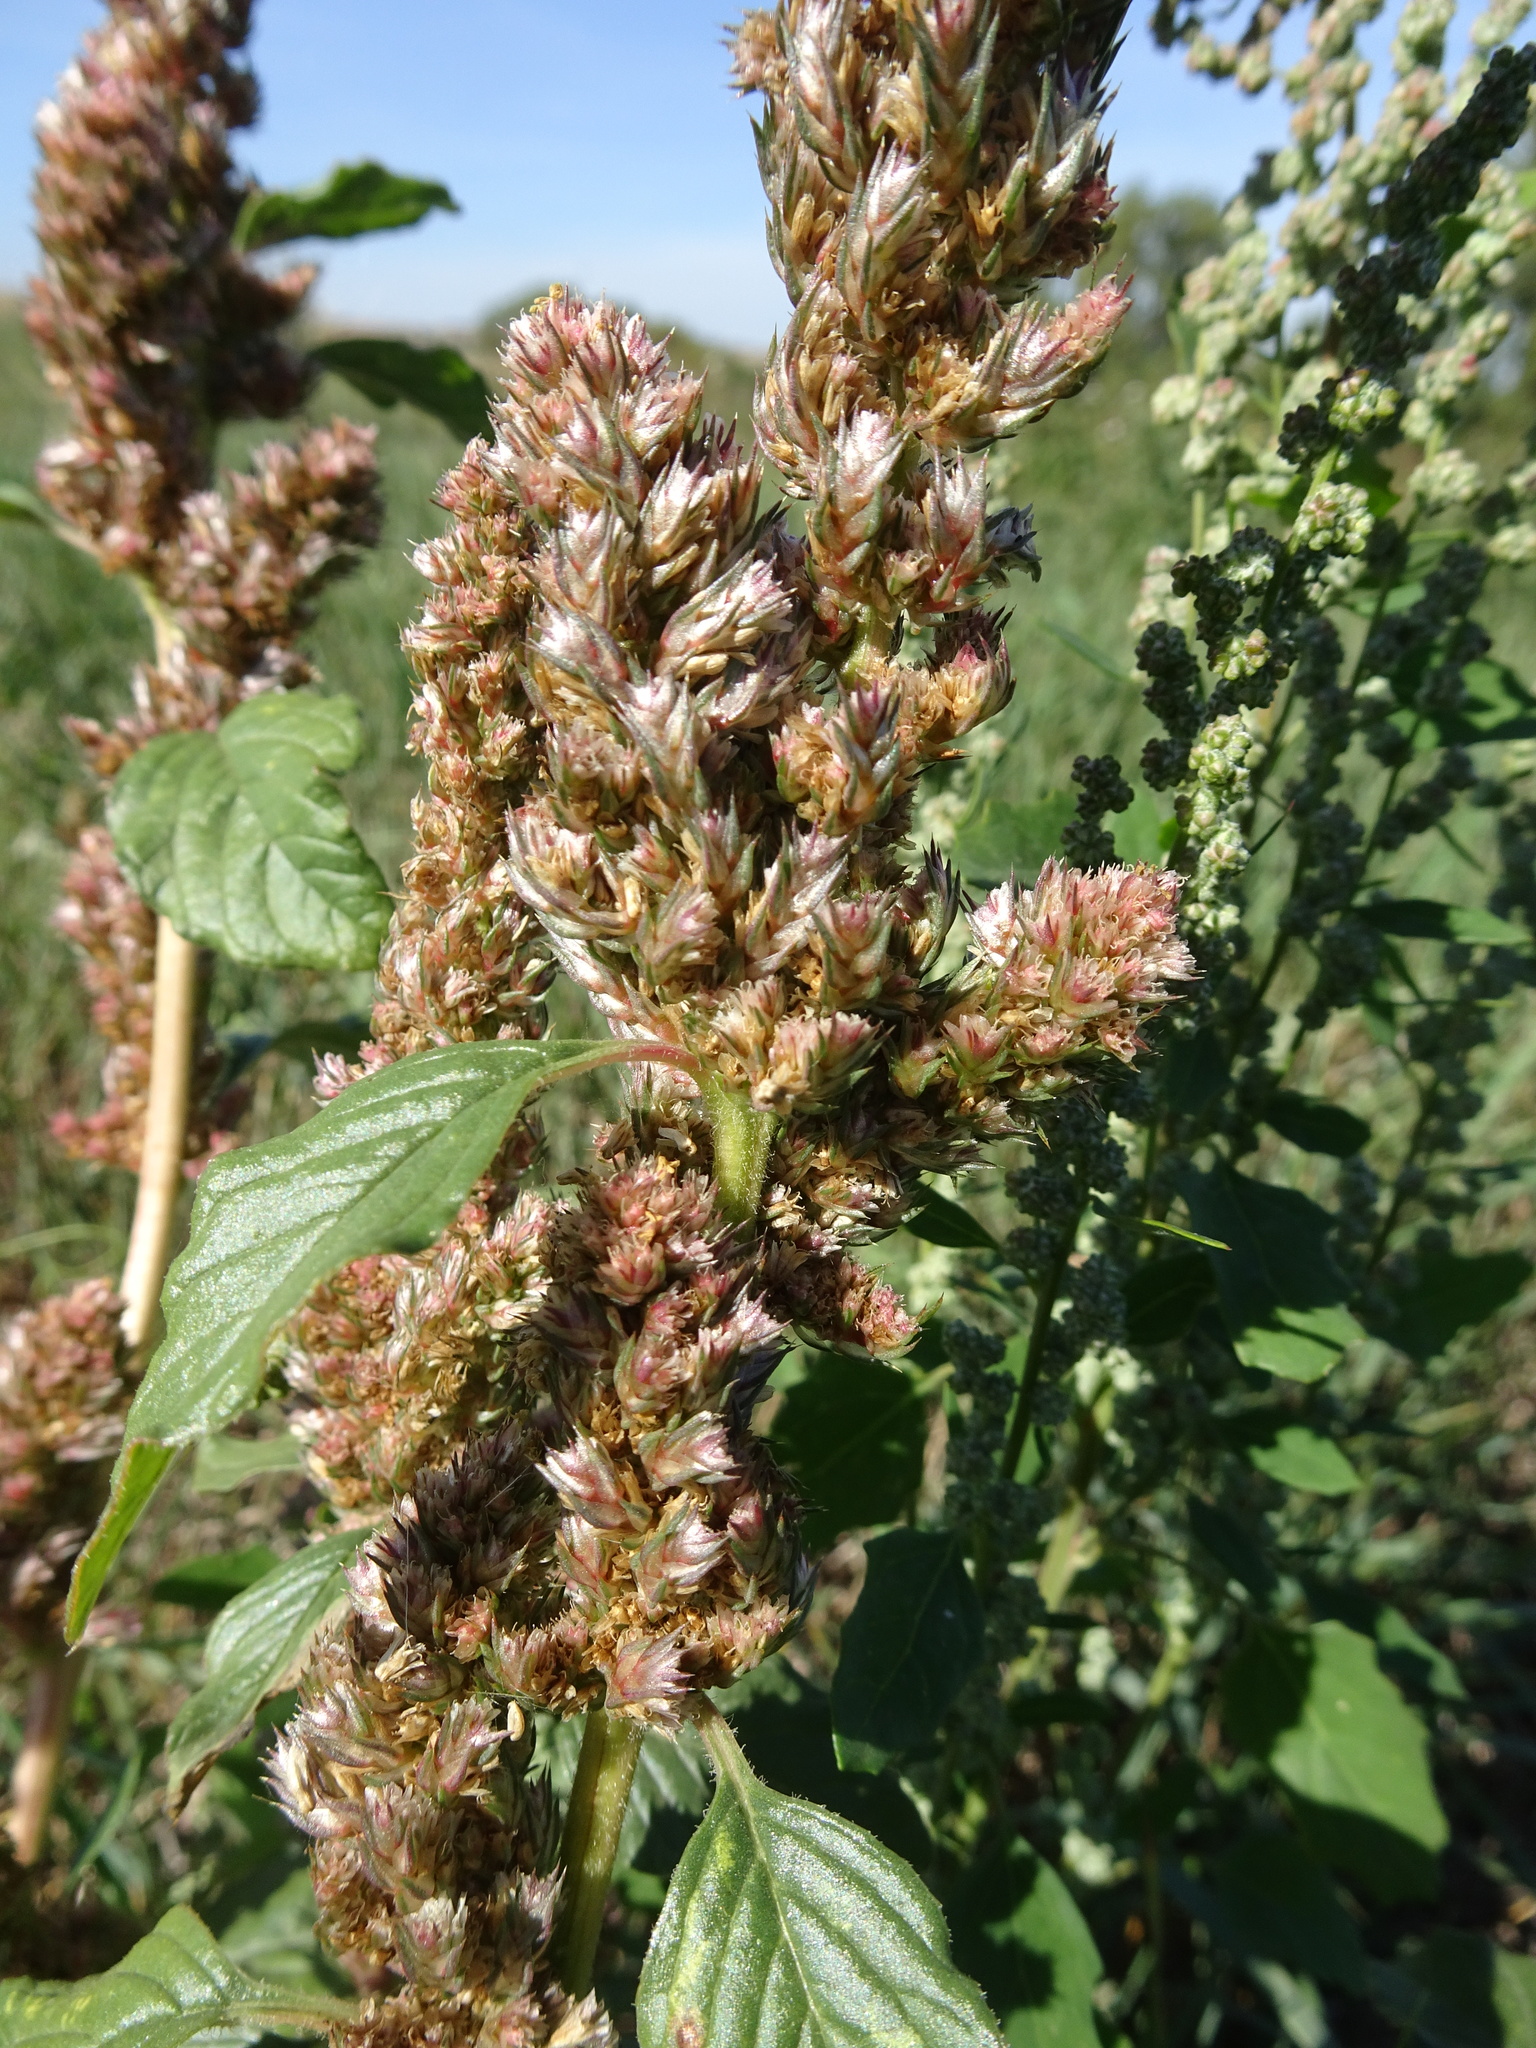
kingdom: Plantae
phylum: Tracheophyta
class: Magnoliopsida
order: Caryophyllales
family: Amaranthaceae
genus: Amaranthus
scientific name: Amaranthus powellii
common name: Powell's amaranth
